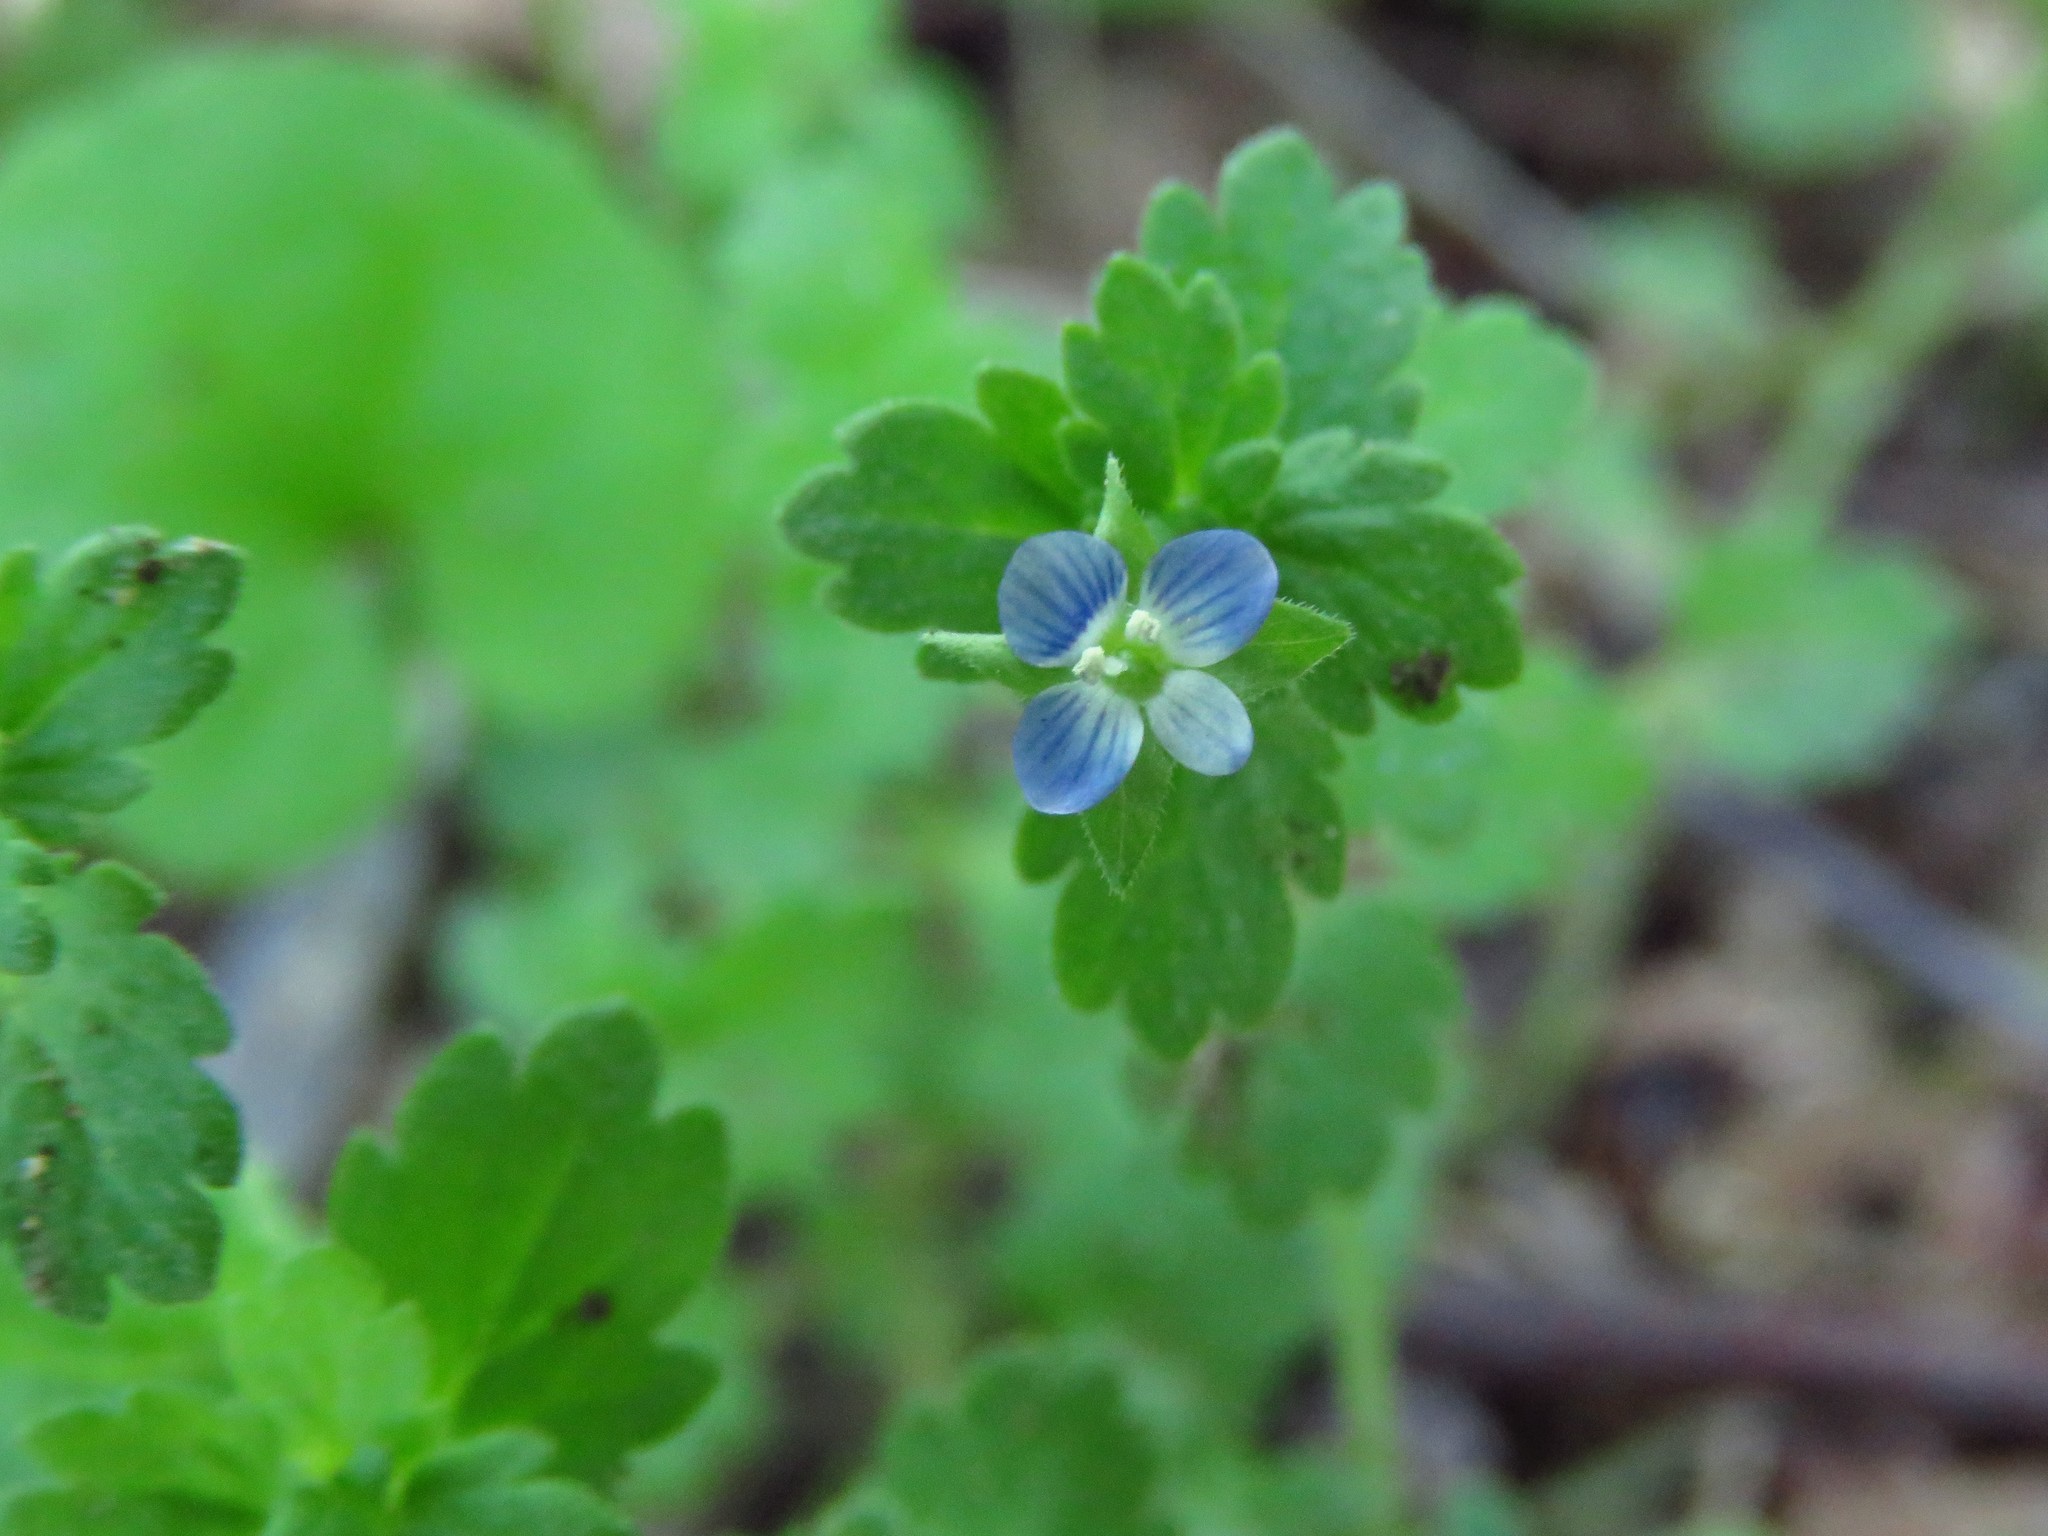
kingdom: Plantae
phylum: Tracheophyta
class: Magnoliopsida
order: Lamiales
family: Plantaginaceae
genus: Veronica
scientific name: Veronica polita
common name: Grey field-speedwell
